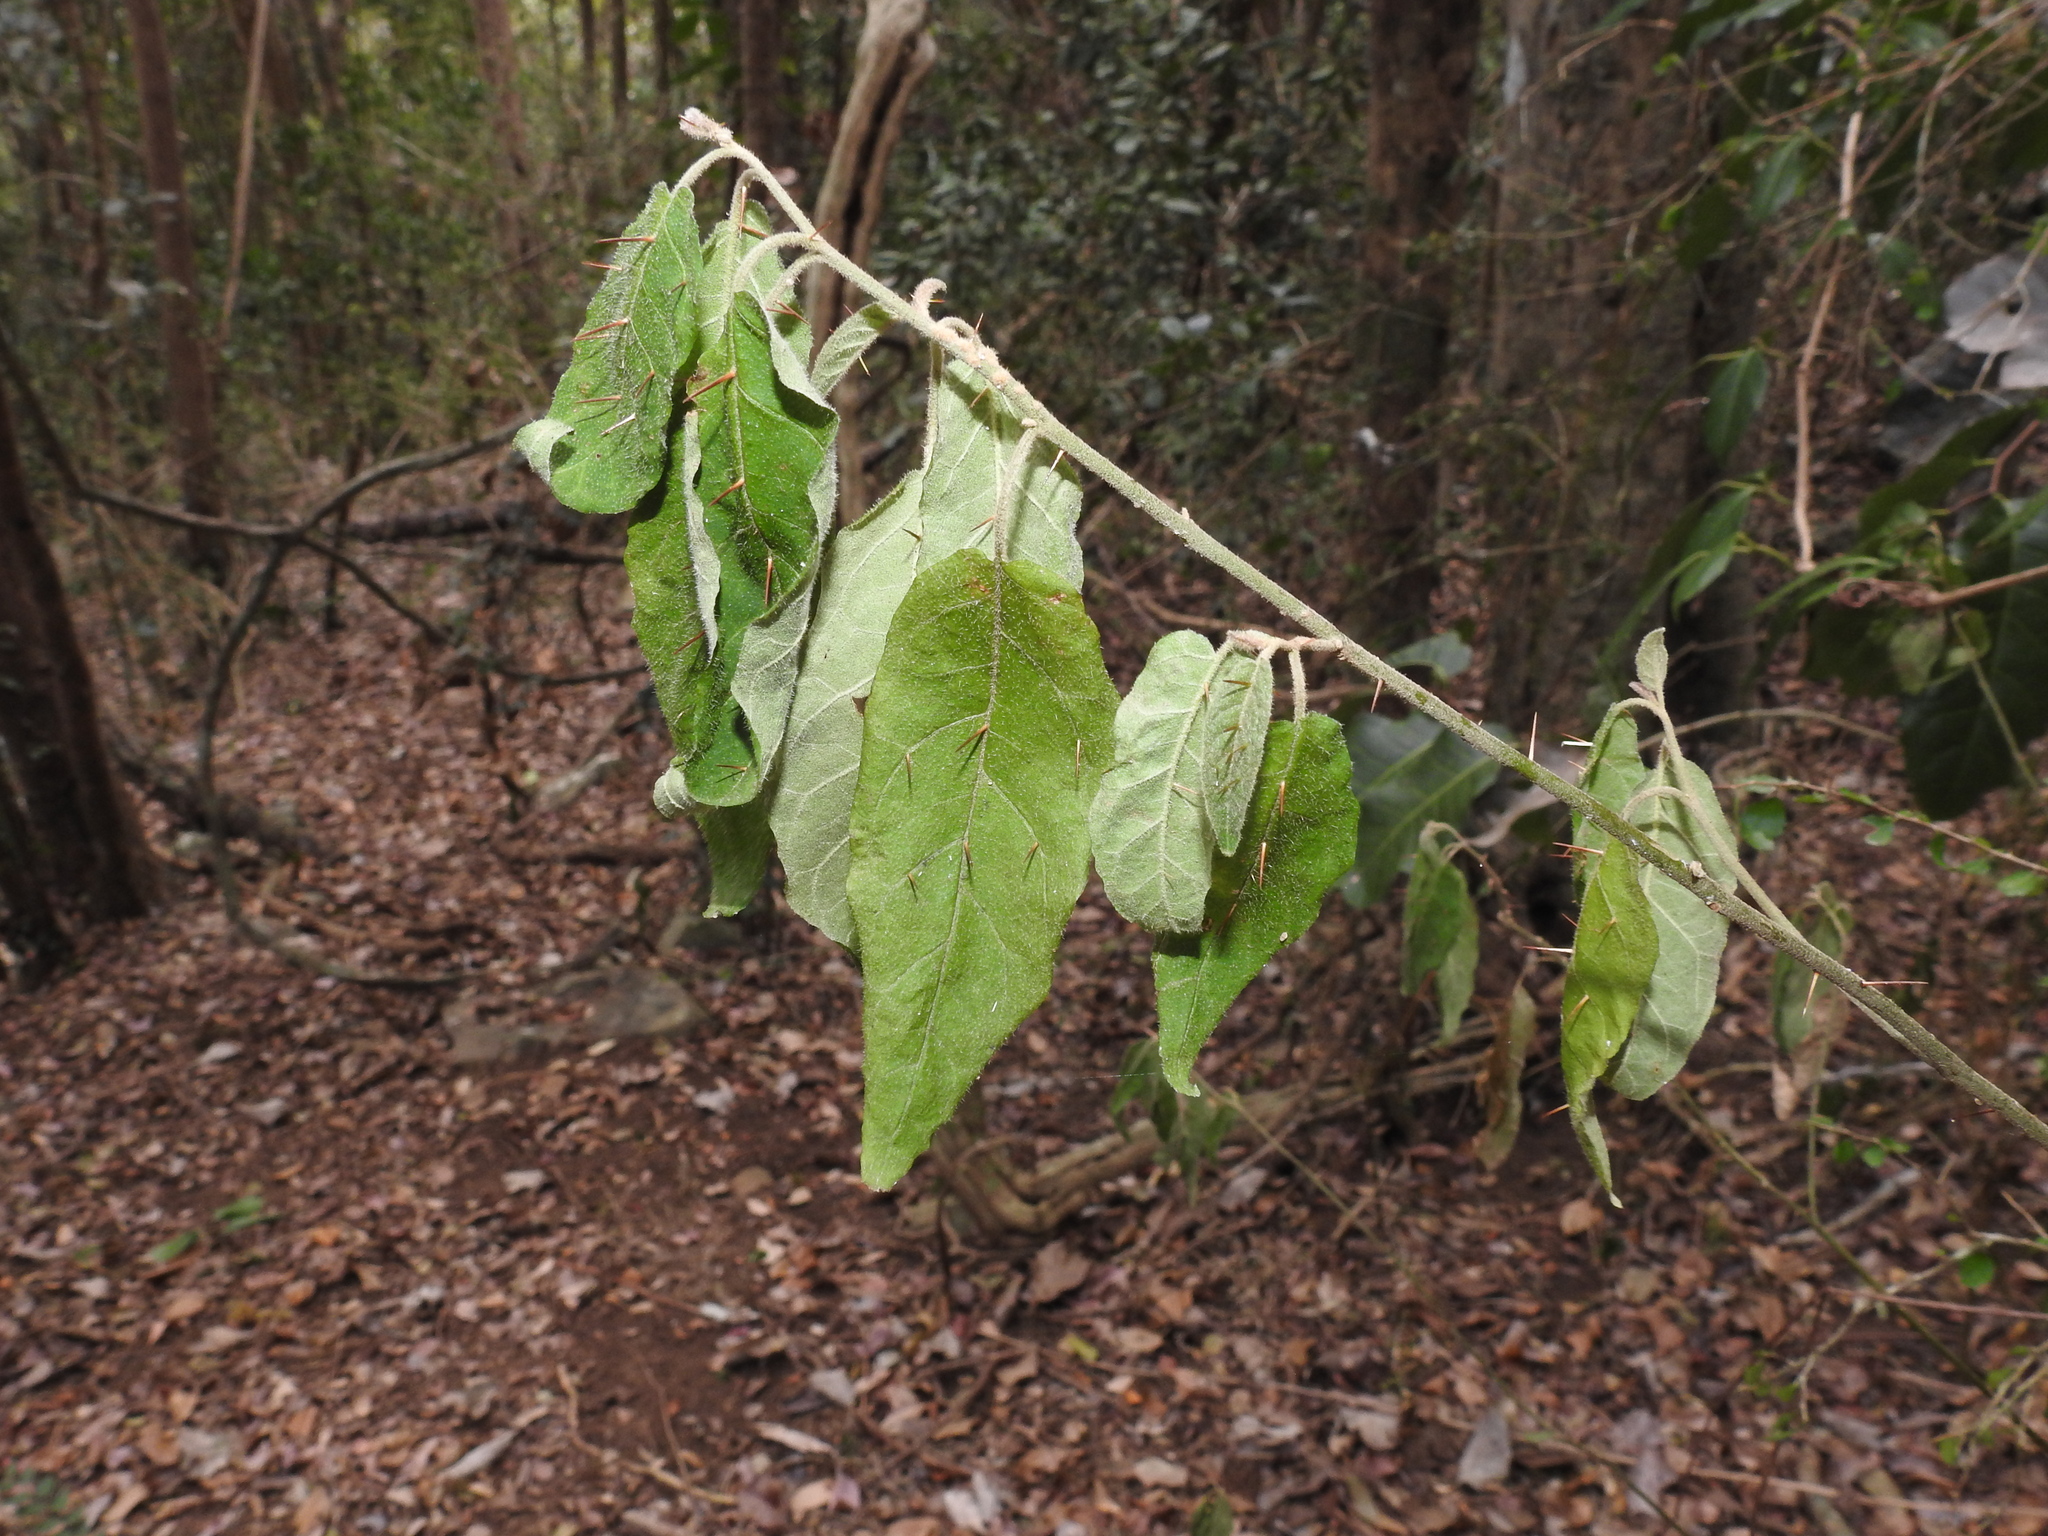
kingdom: Plantae
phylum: Tracheophyta
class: Magnoliopsida
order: Solanales
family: Solanaceae
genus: Solanum
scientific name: Solanum stelligerum
